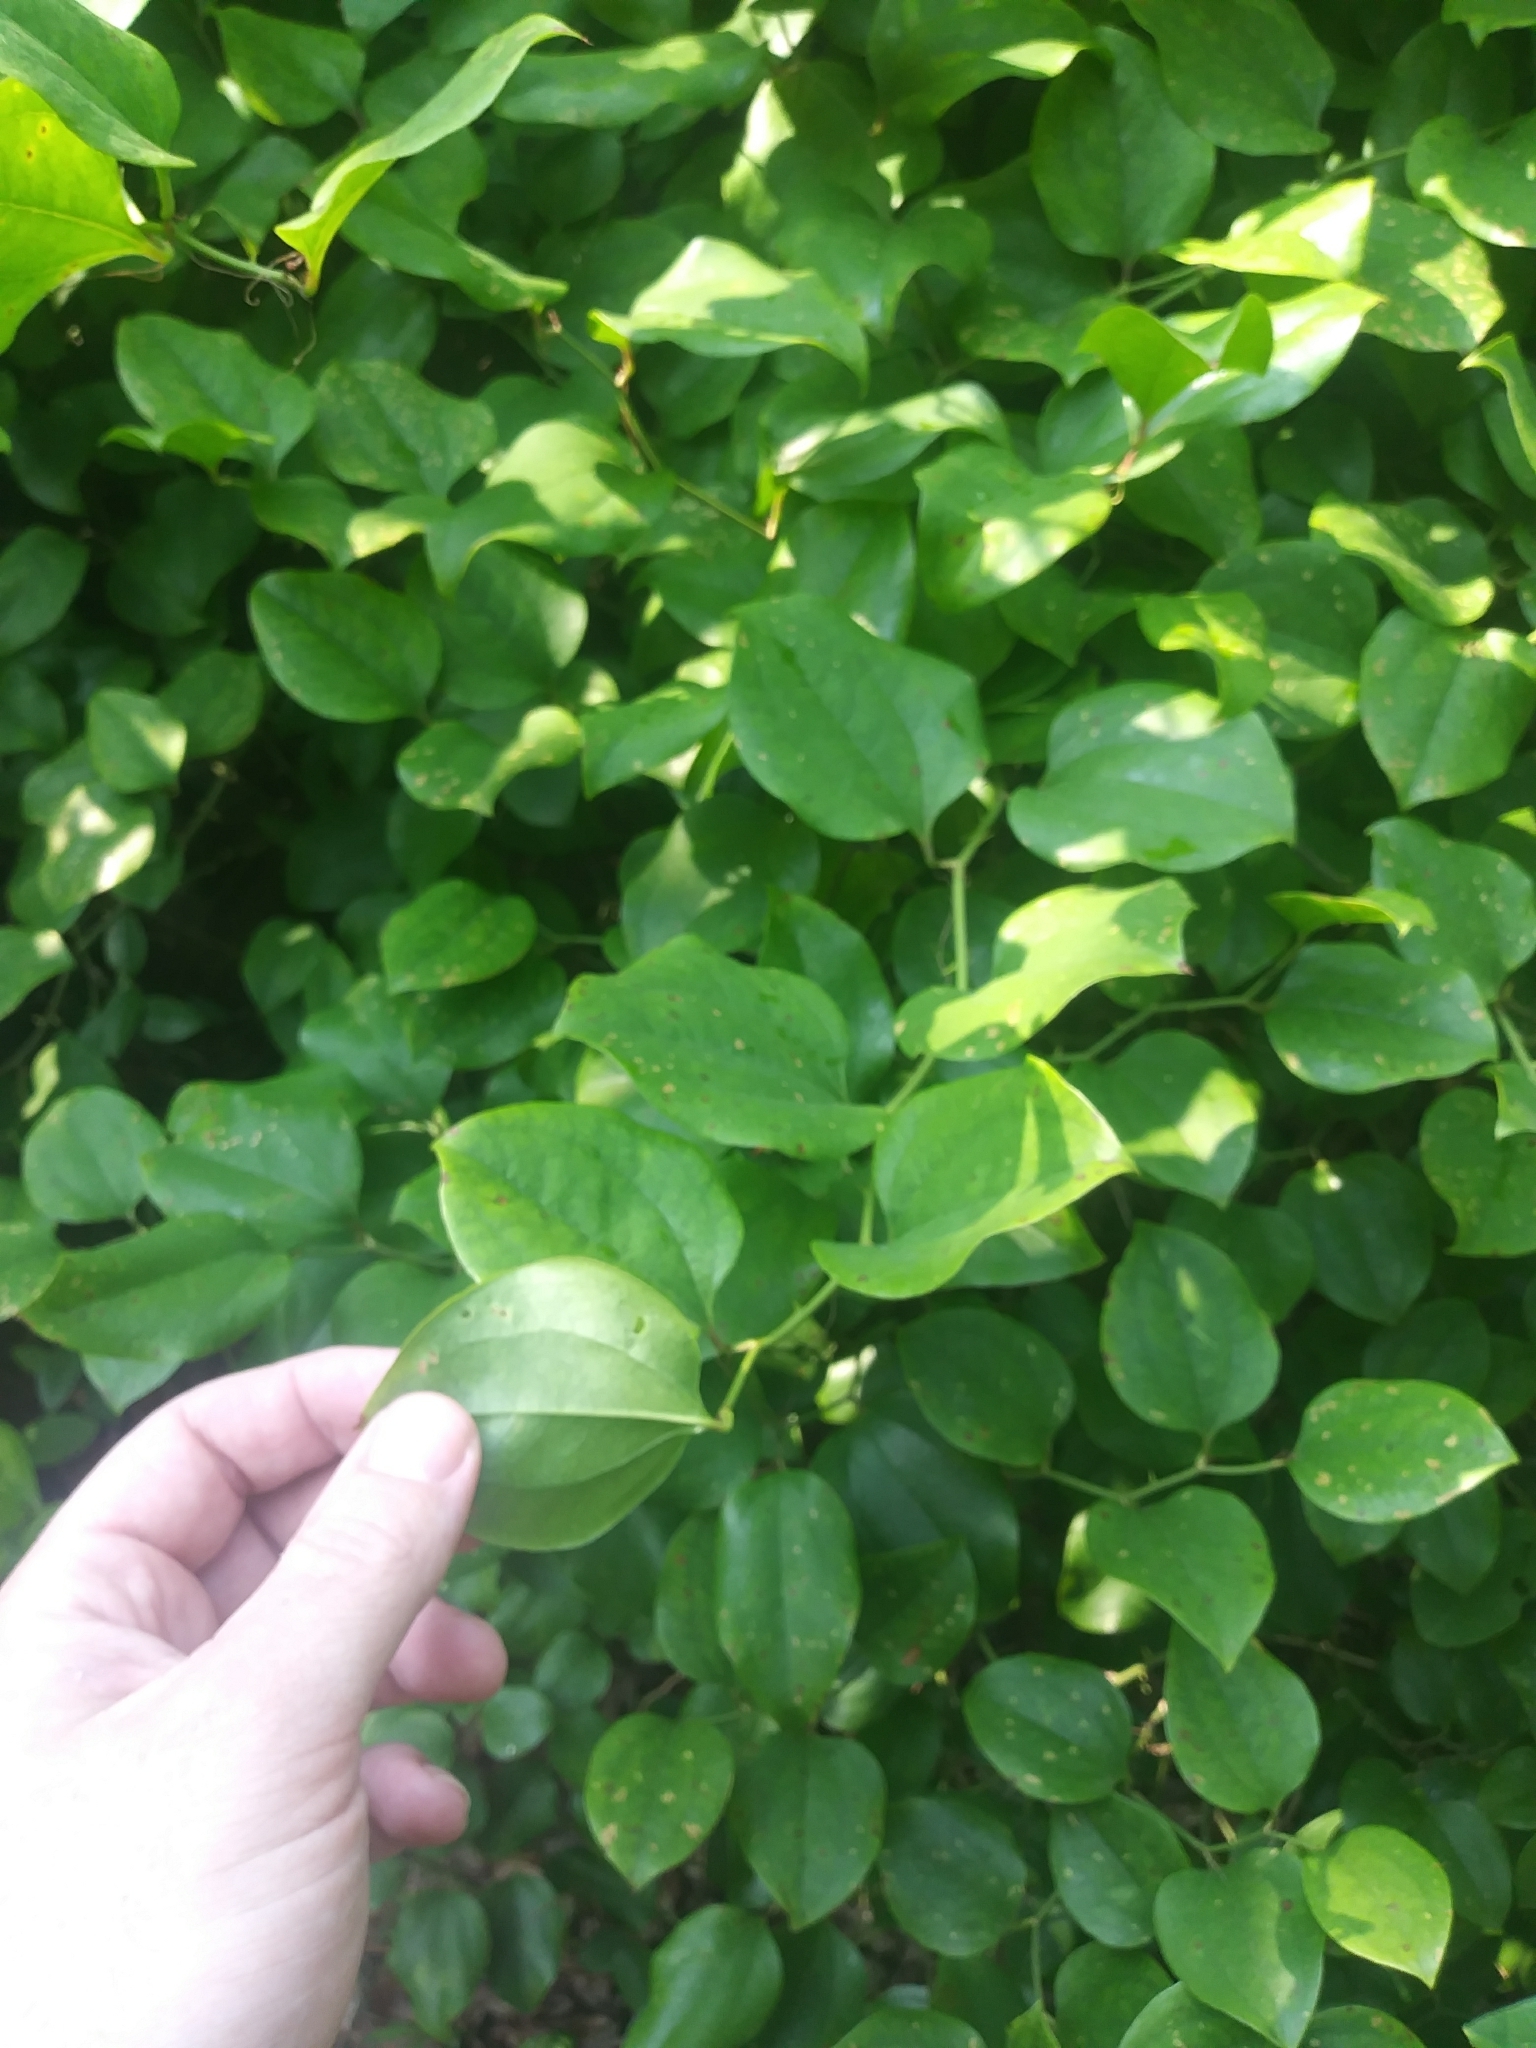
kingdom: Plantae
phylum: Tracheophyta
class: Liliopsida
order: Liliales
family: Smilacaceae
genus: Smilax
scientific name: Smilax rotundifolia
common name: Bullbriar
